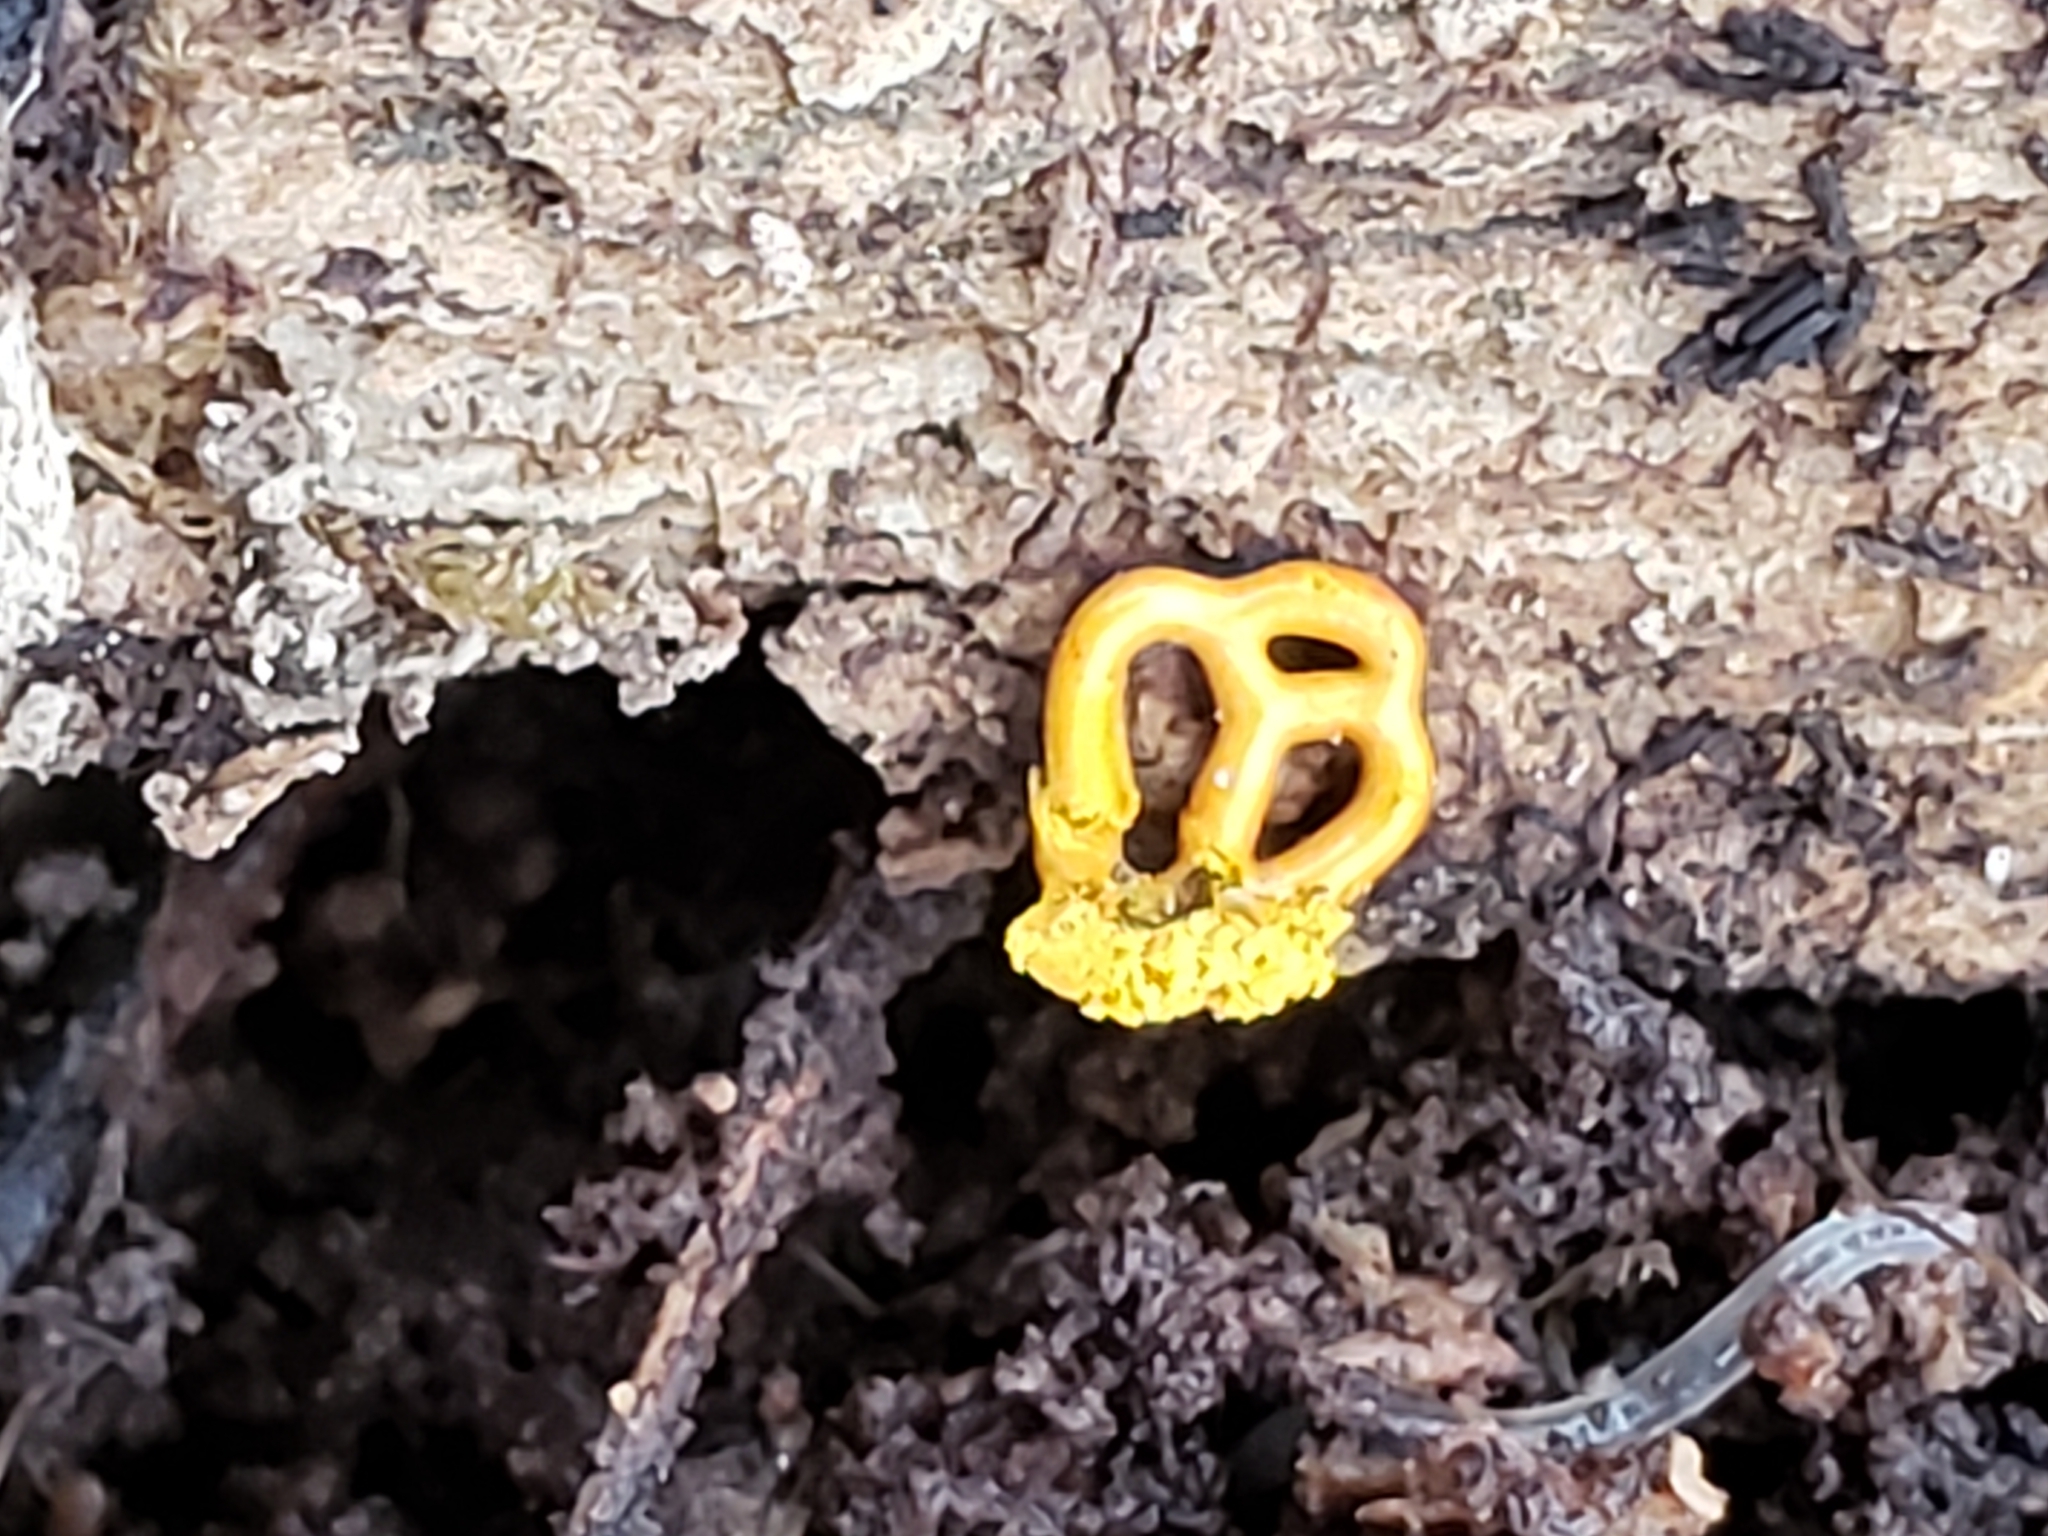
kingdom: Protozoa
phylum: Mycetozoa
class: Myxomycetes
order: Trichiales
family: Arcyriaceae
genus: Hemitrichia
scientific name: Hemitrichia serpula
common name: Pretzel slime mold
